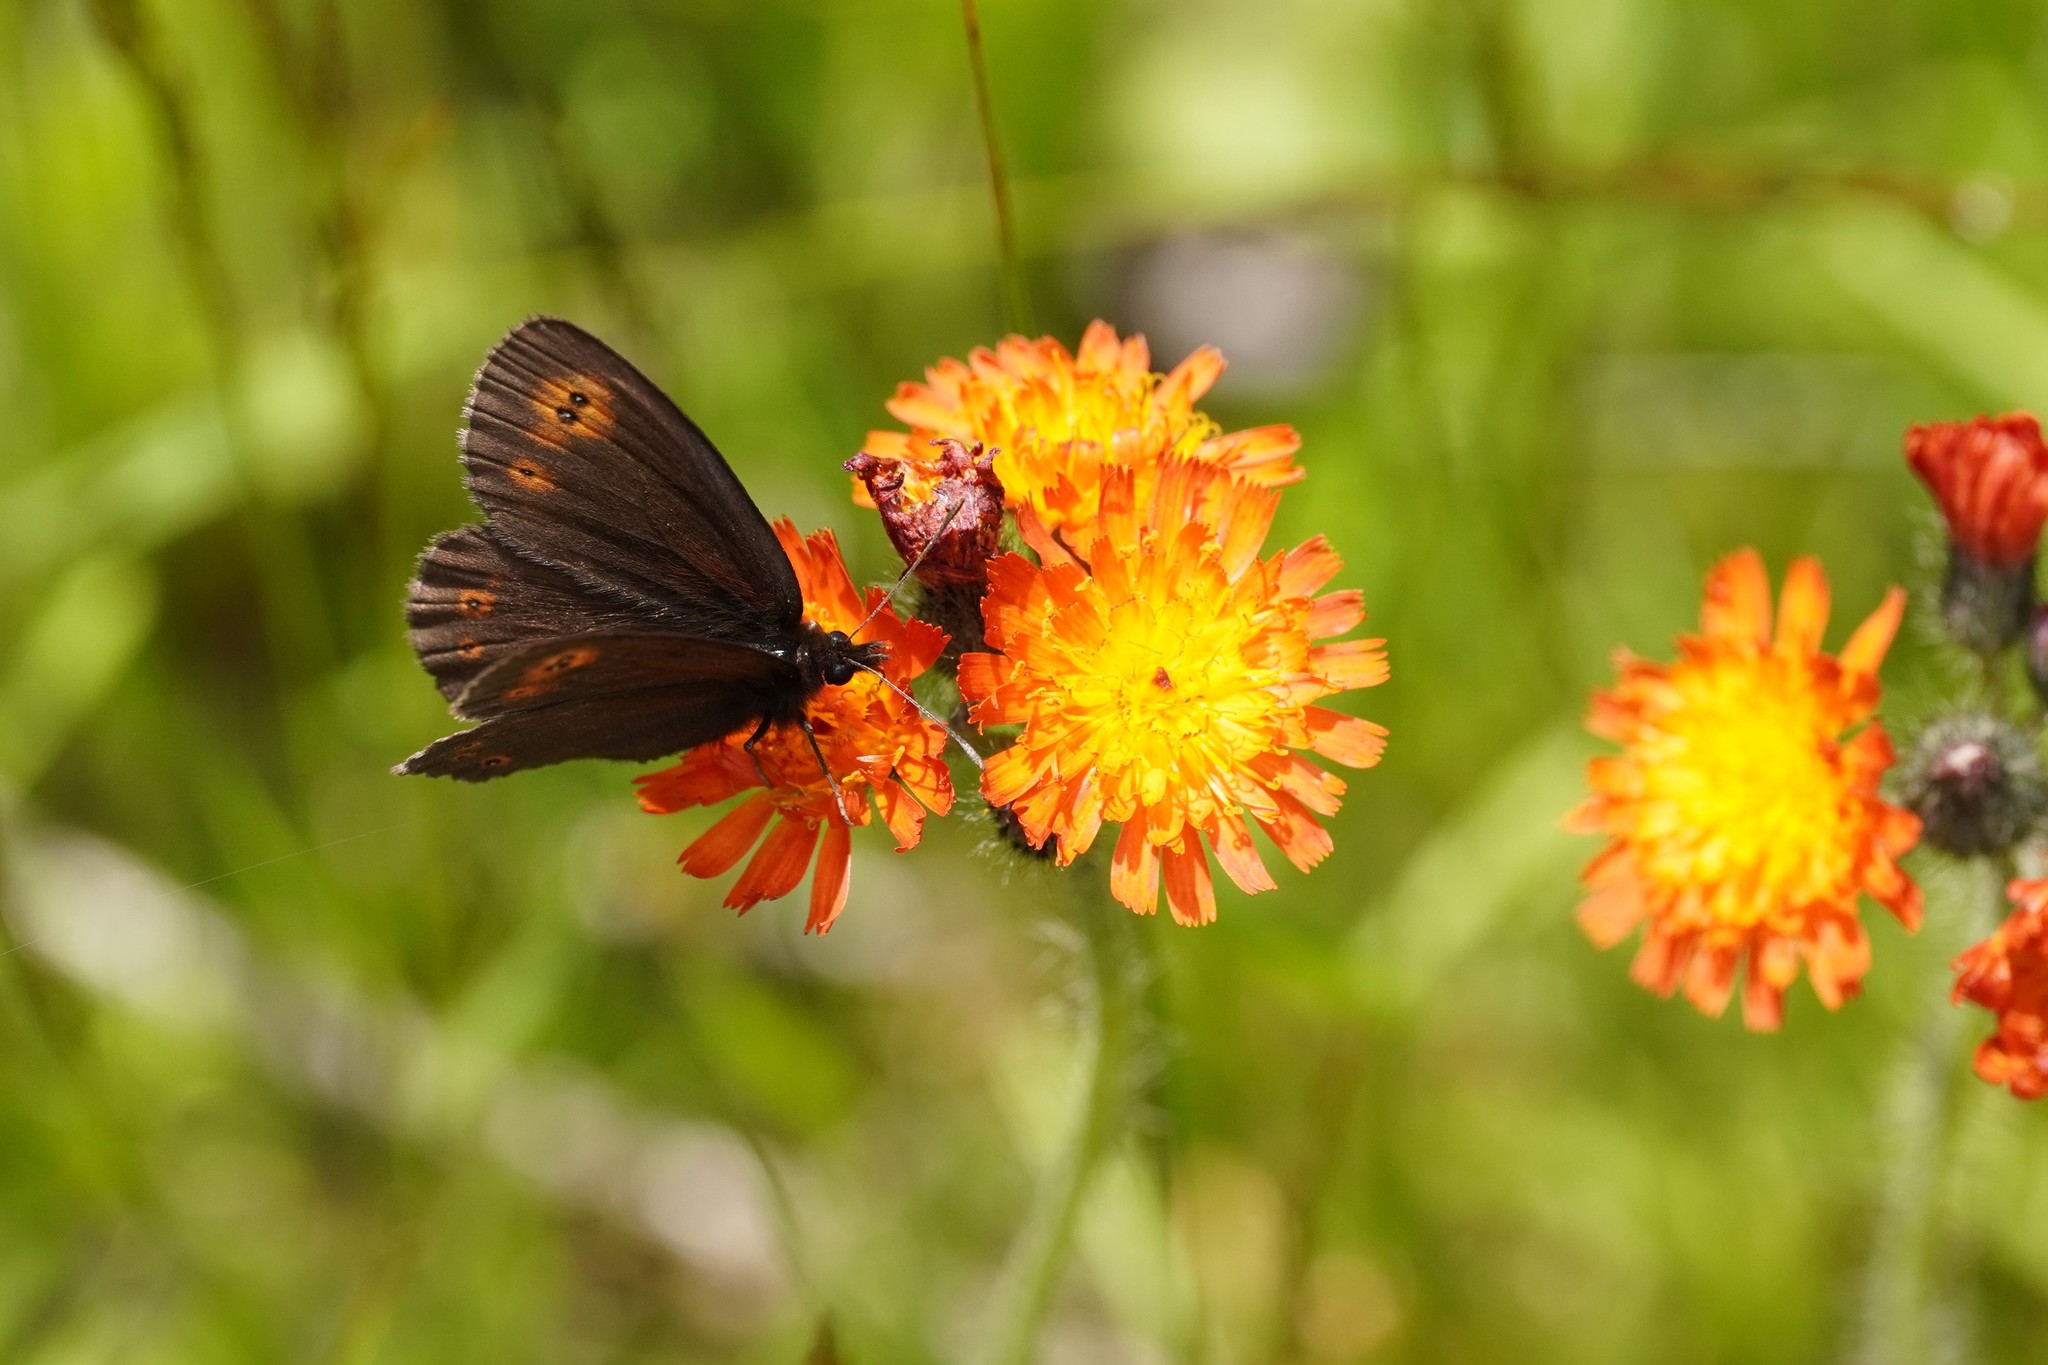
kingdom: Animalia
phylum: Arthropoda
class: Insecta
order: Lepidoptera
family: Nymphalidae
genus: Erebia
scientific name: Erebia medusa
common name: Woodland ringlet
